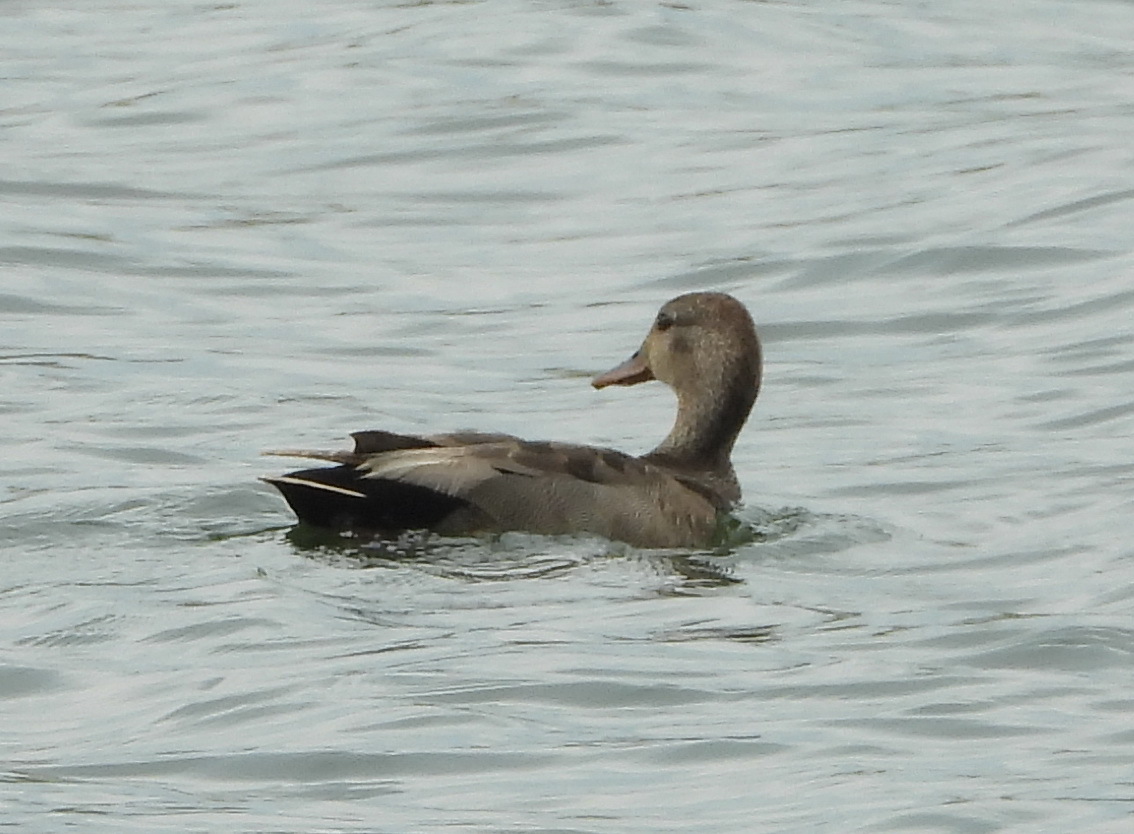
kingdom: Animalia
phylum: Chordata
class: Aves
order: Anseriformes
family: Anatidae
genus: Mareca
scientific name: Mareca strepera
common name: Gadwall
